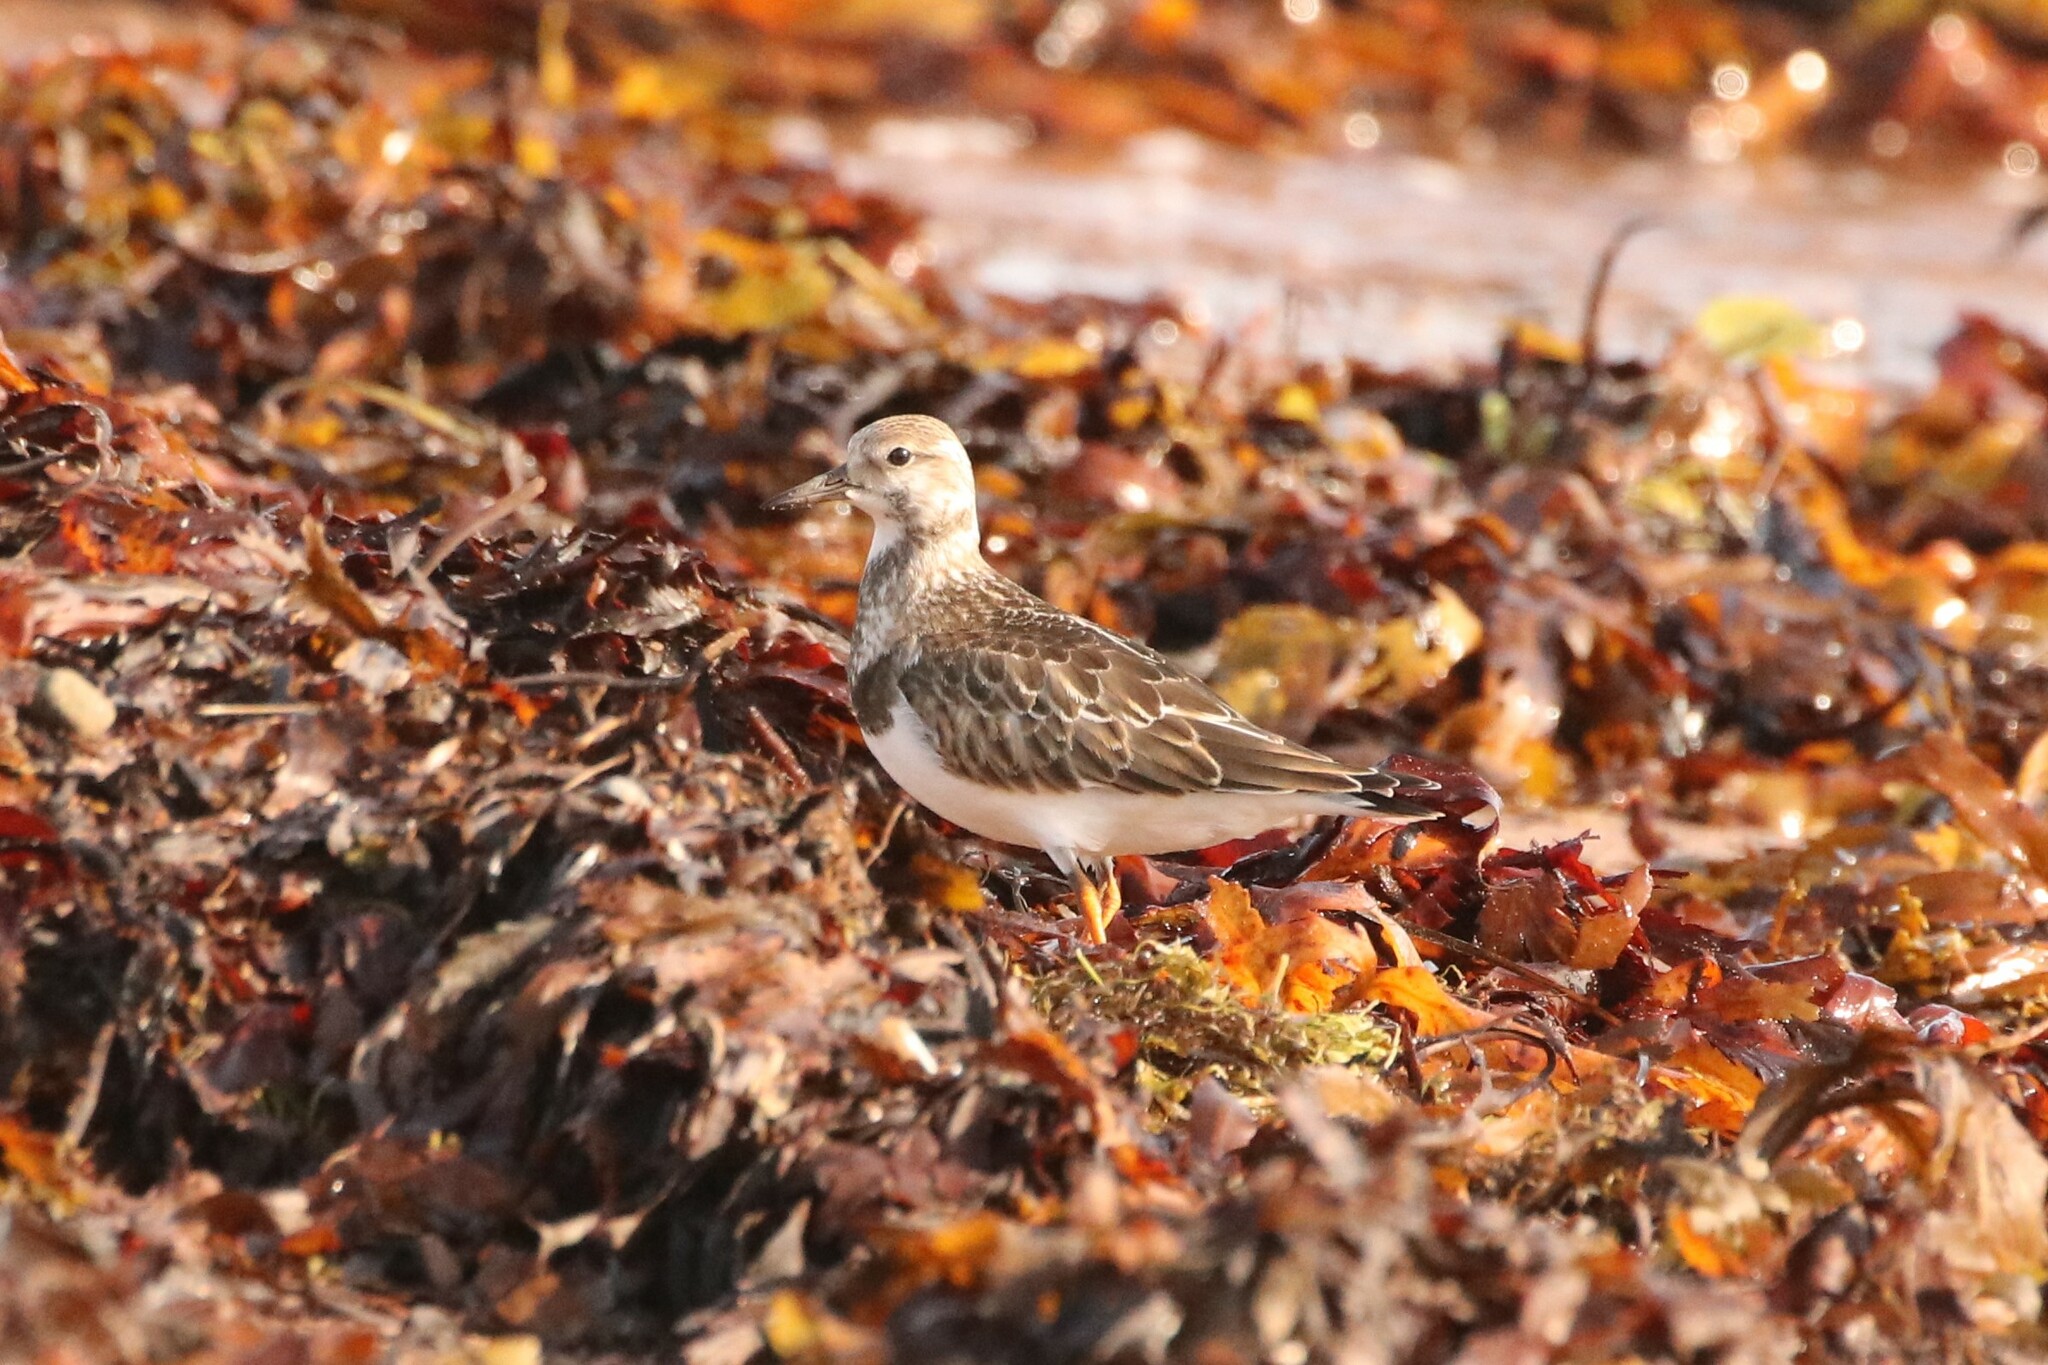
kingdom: Animalia
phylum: Chordata
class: Aves
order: Charadriiformes
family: Scolopacidae
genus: Arenaria
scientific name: Arenaria interpres
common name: Ruddy turnstone
